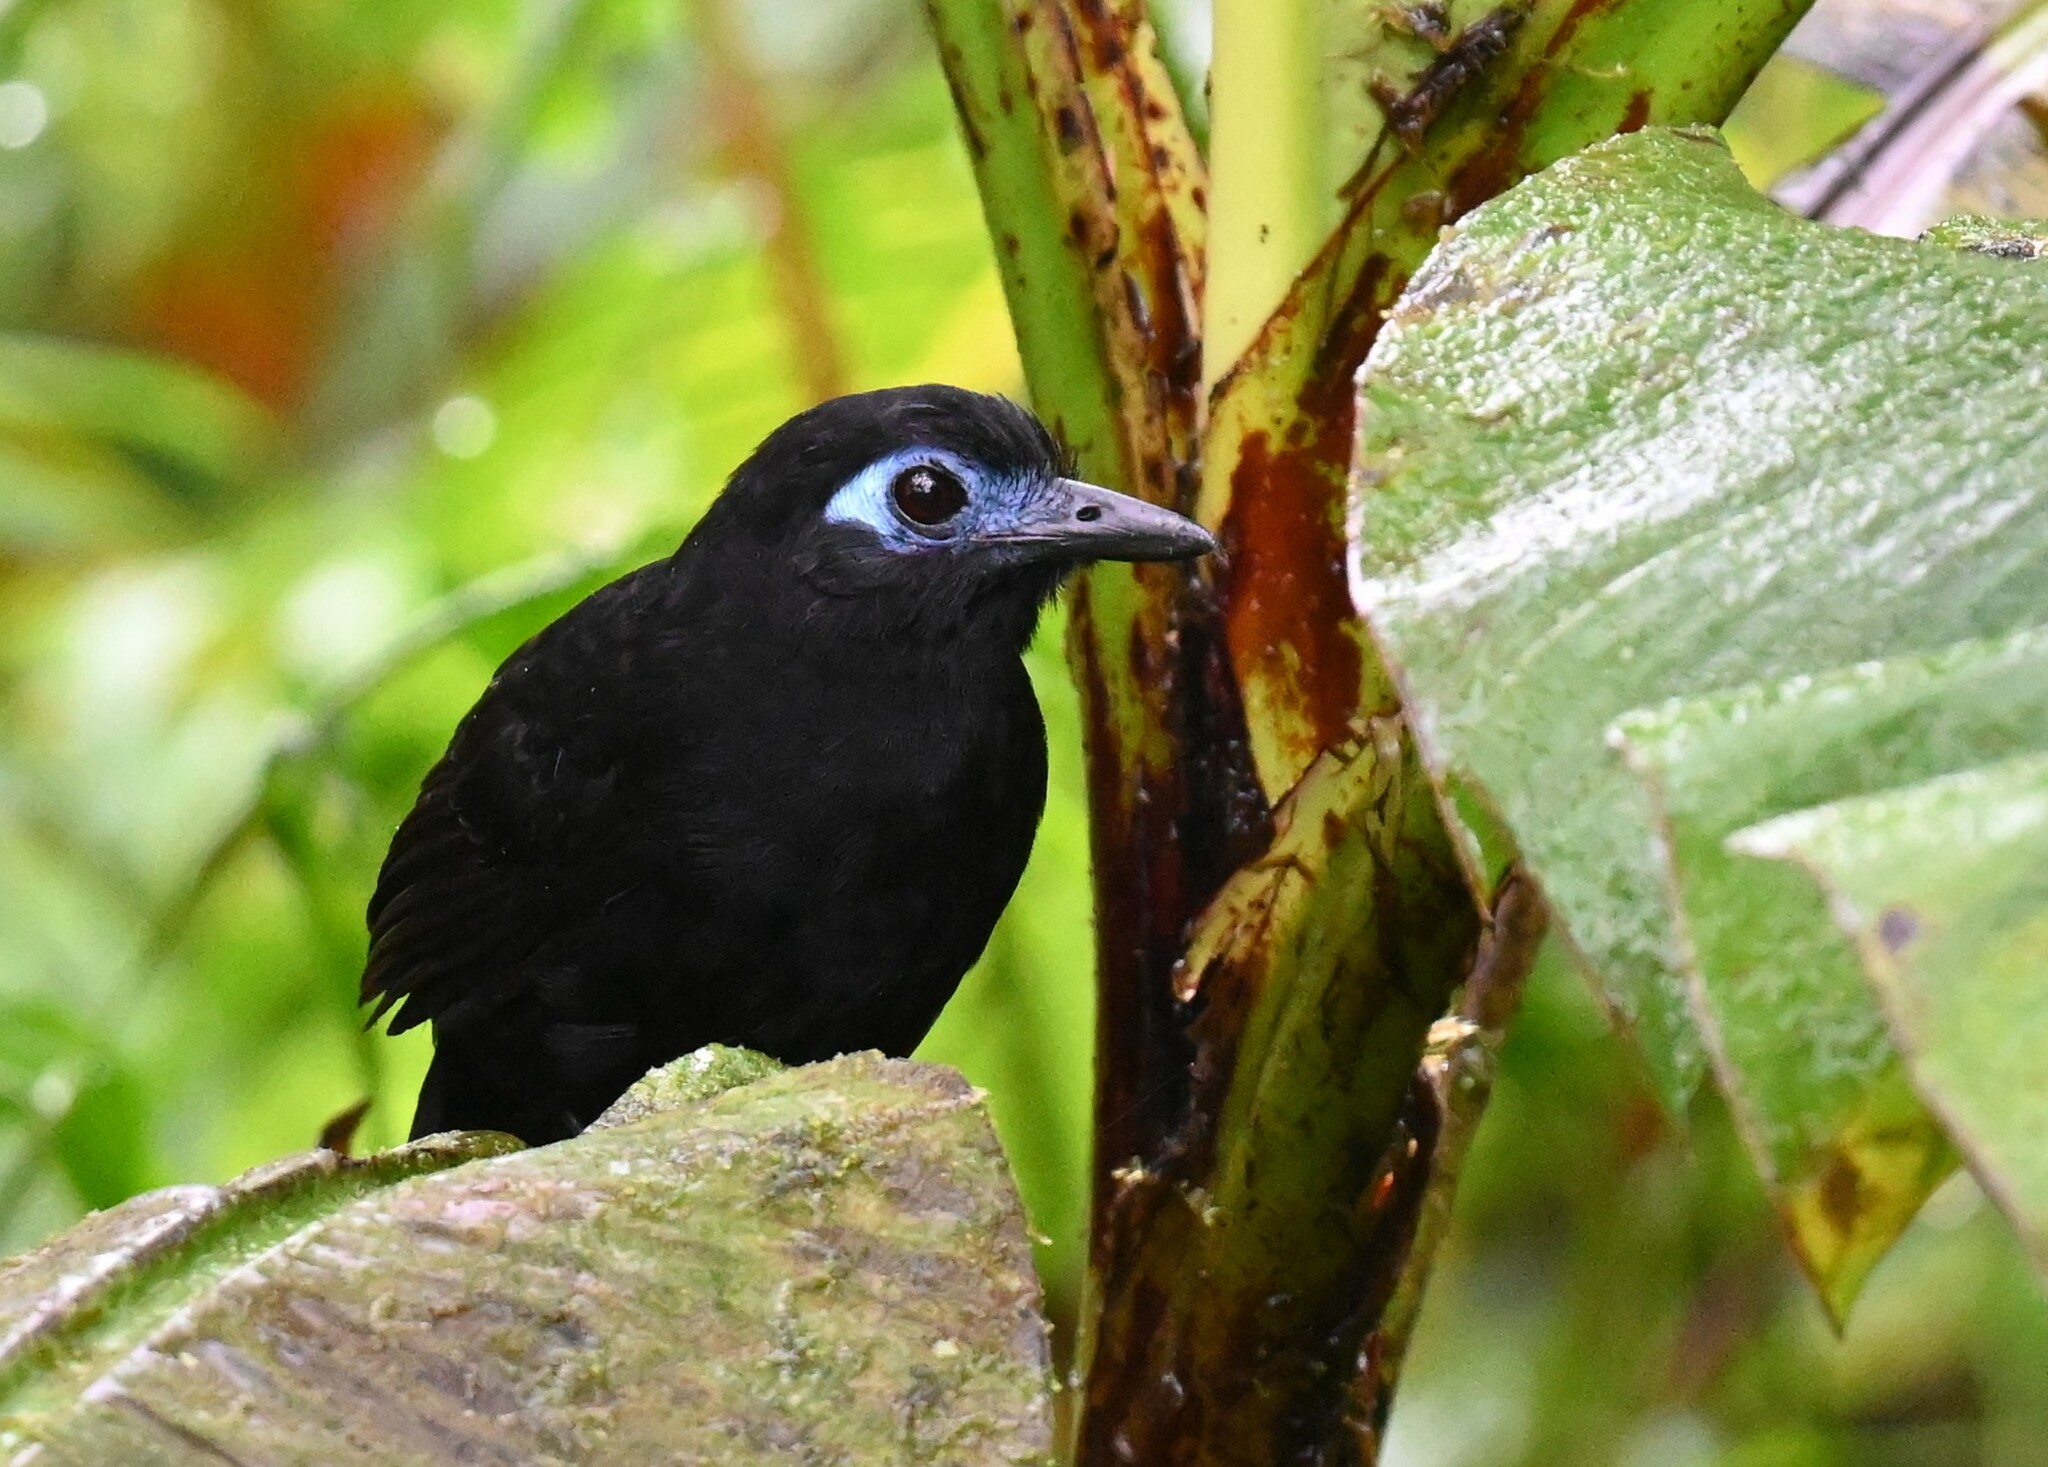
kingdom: Animalia
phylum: Chordata
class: Aves
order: Passeriformes
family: Thamnophilidae
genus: Hafferia
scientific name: Hafferia zeledoni
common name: Zeledon's antbird
